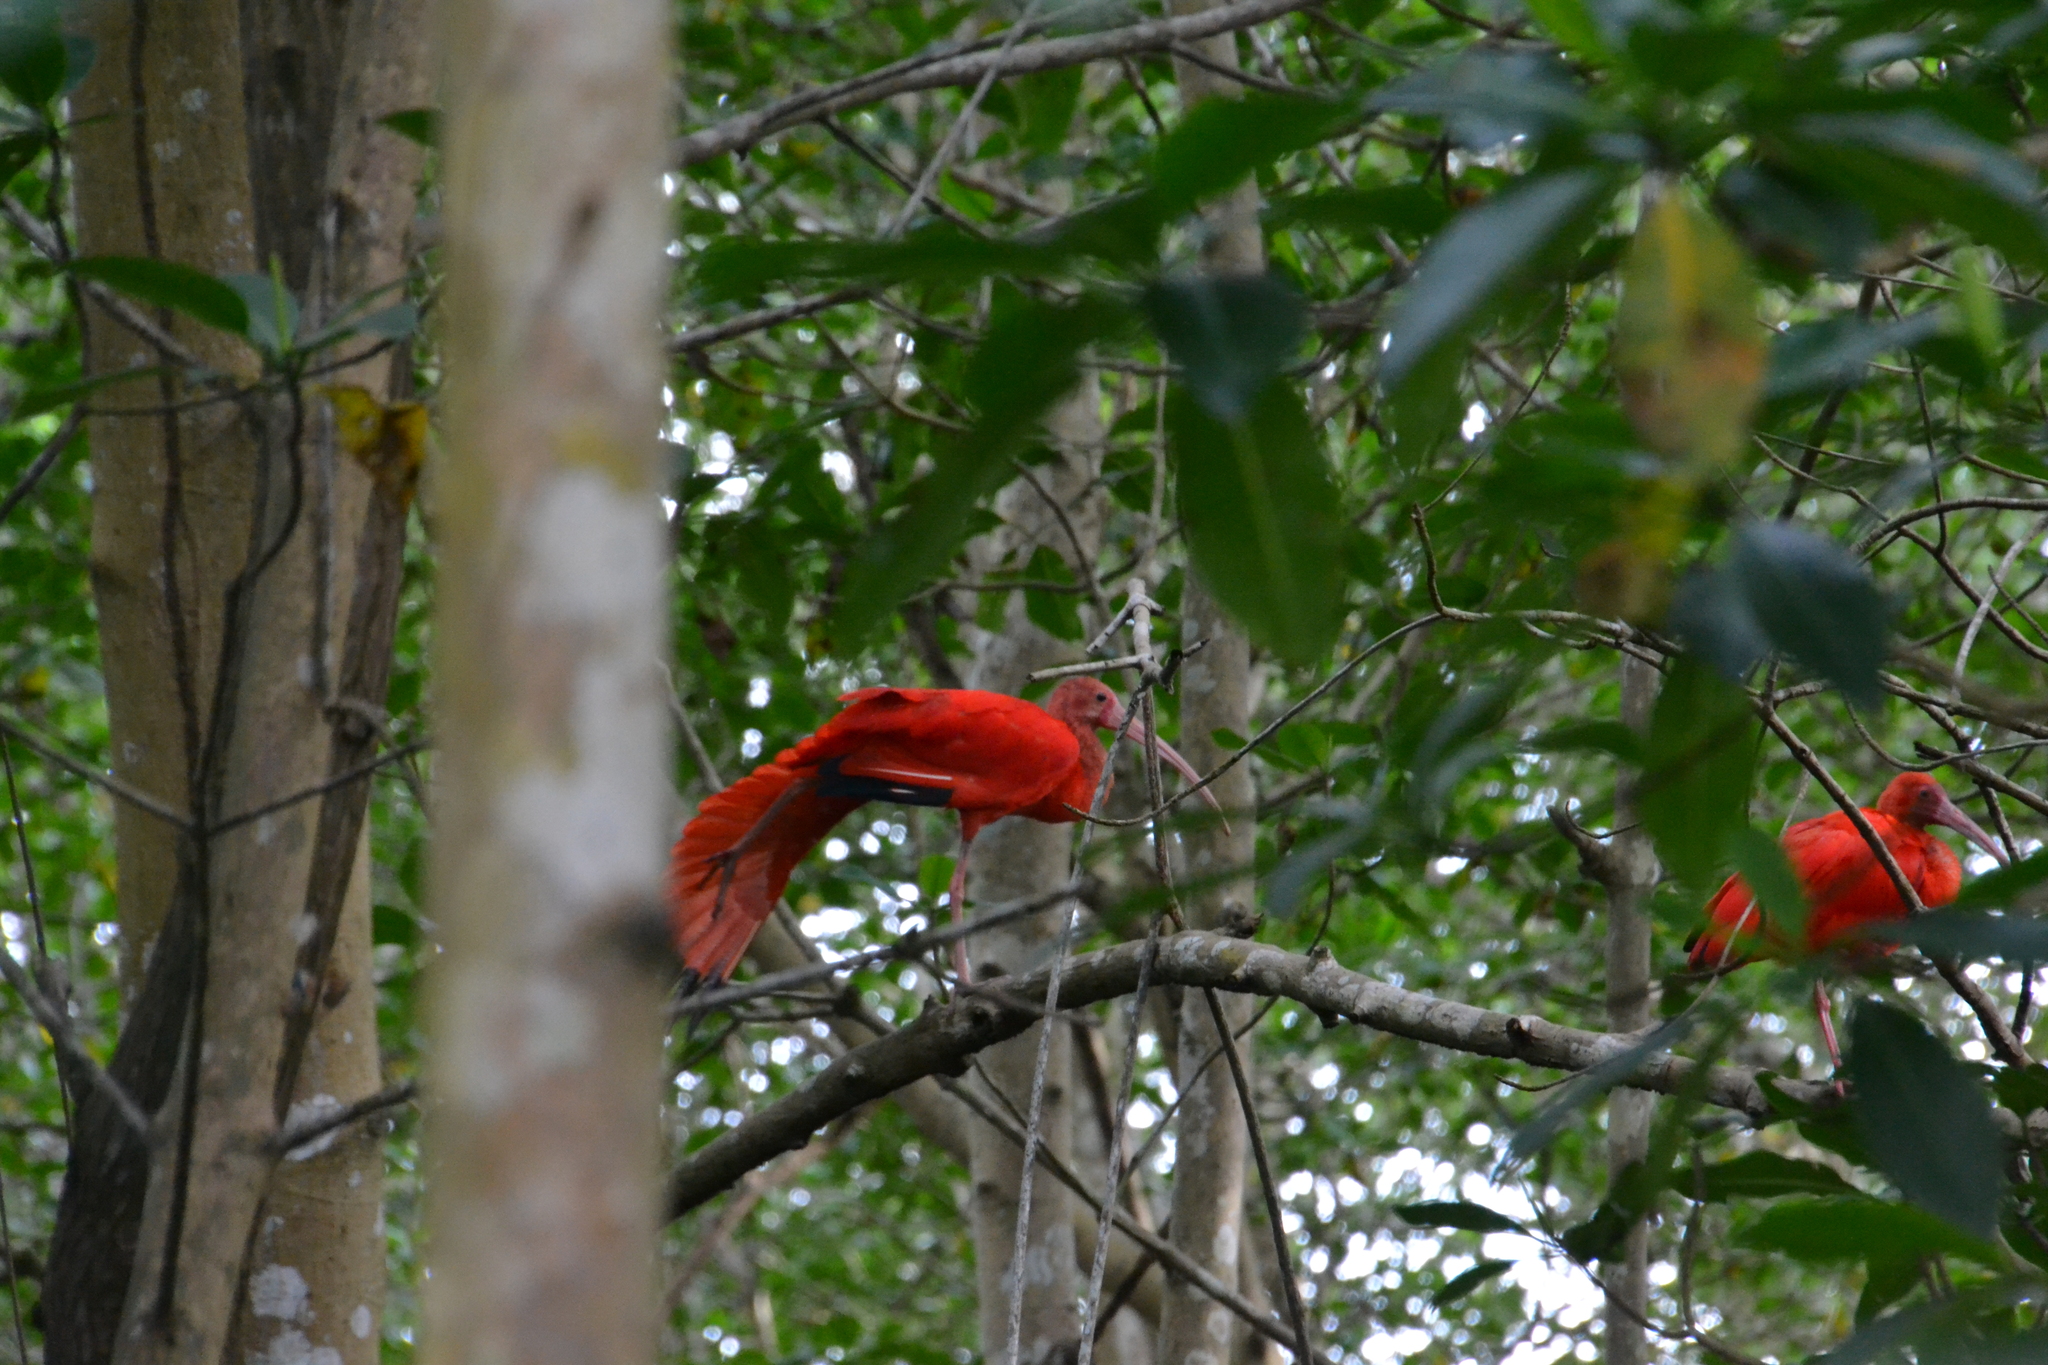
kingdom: Animalia
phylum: Chordata
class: Aves
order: Pelecaniformes
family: Threskiornithidae
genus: Eudocimus
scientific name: Eudocimus ruber
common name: Scarlet ibis
